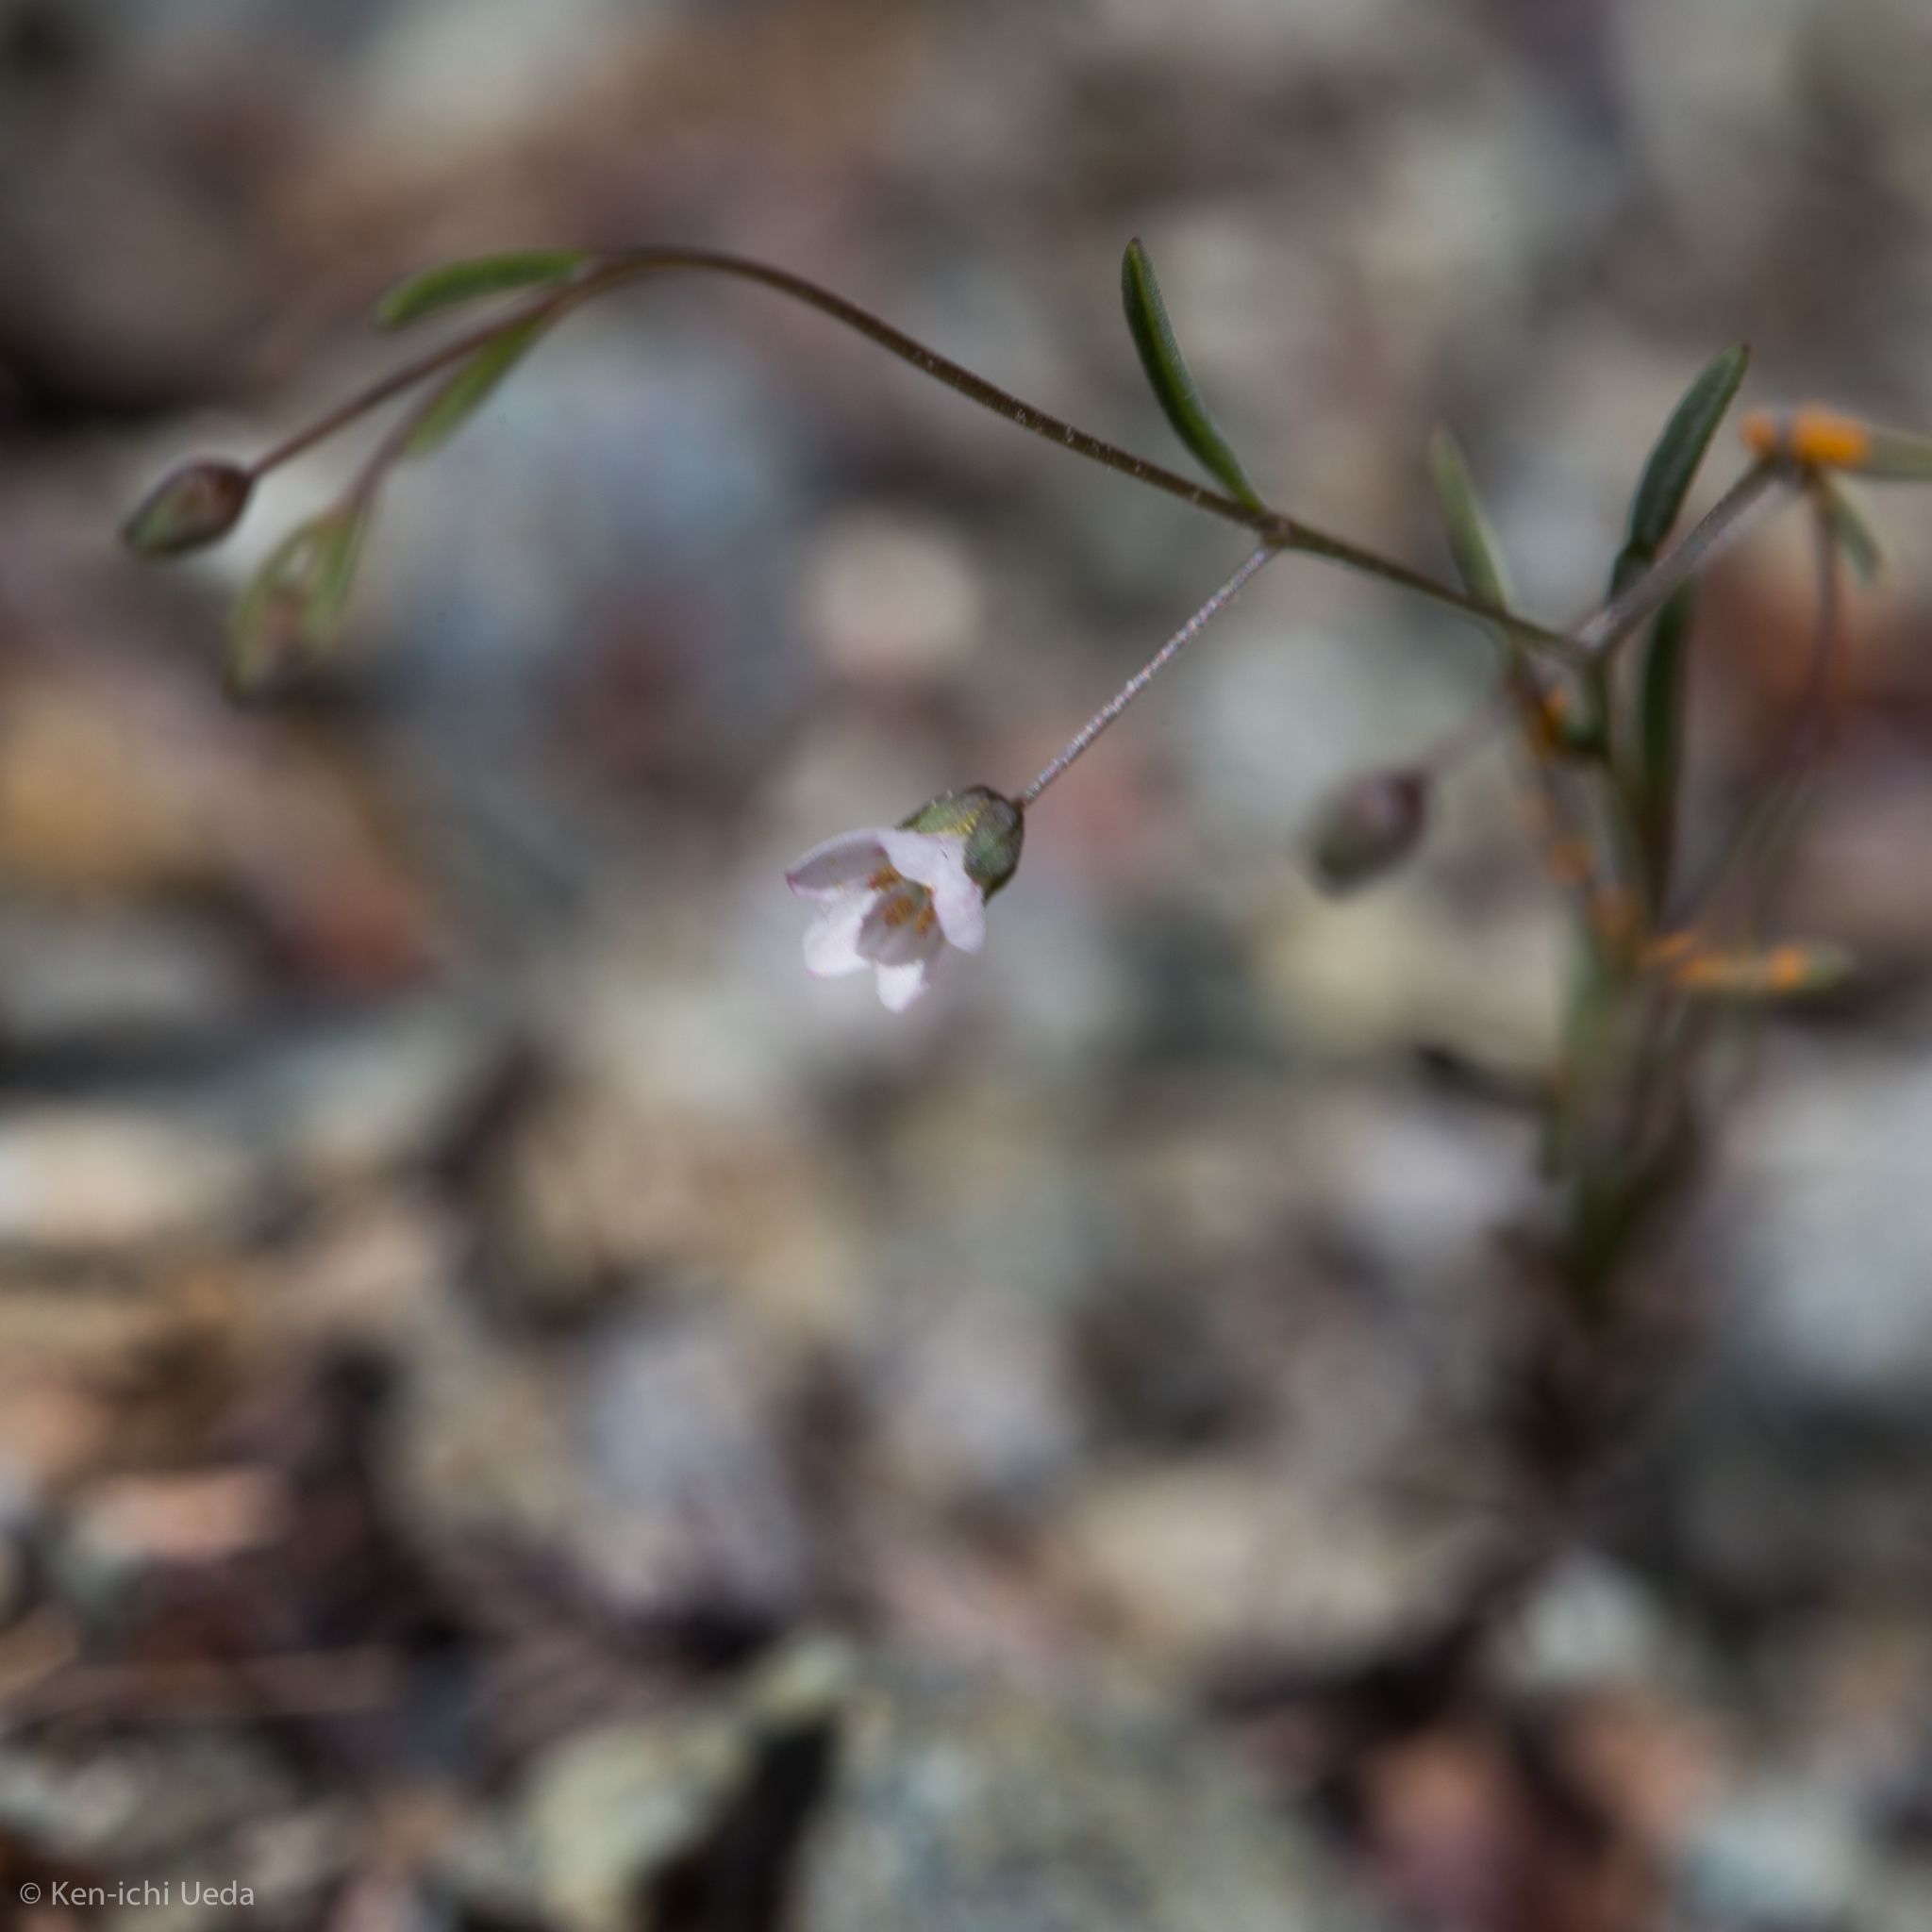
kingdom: Plantae
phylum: Tracheophyta
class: Magnoliopsida
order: Malpighiales
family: Linaceae
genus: Hesperolinon
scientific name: Hesperolinon micranthum
